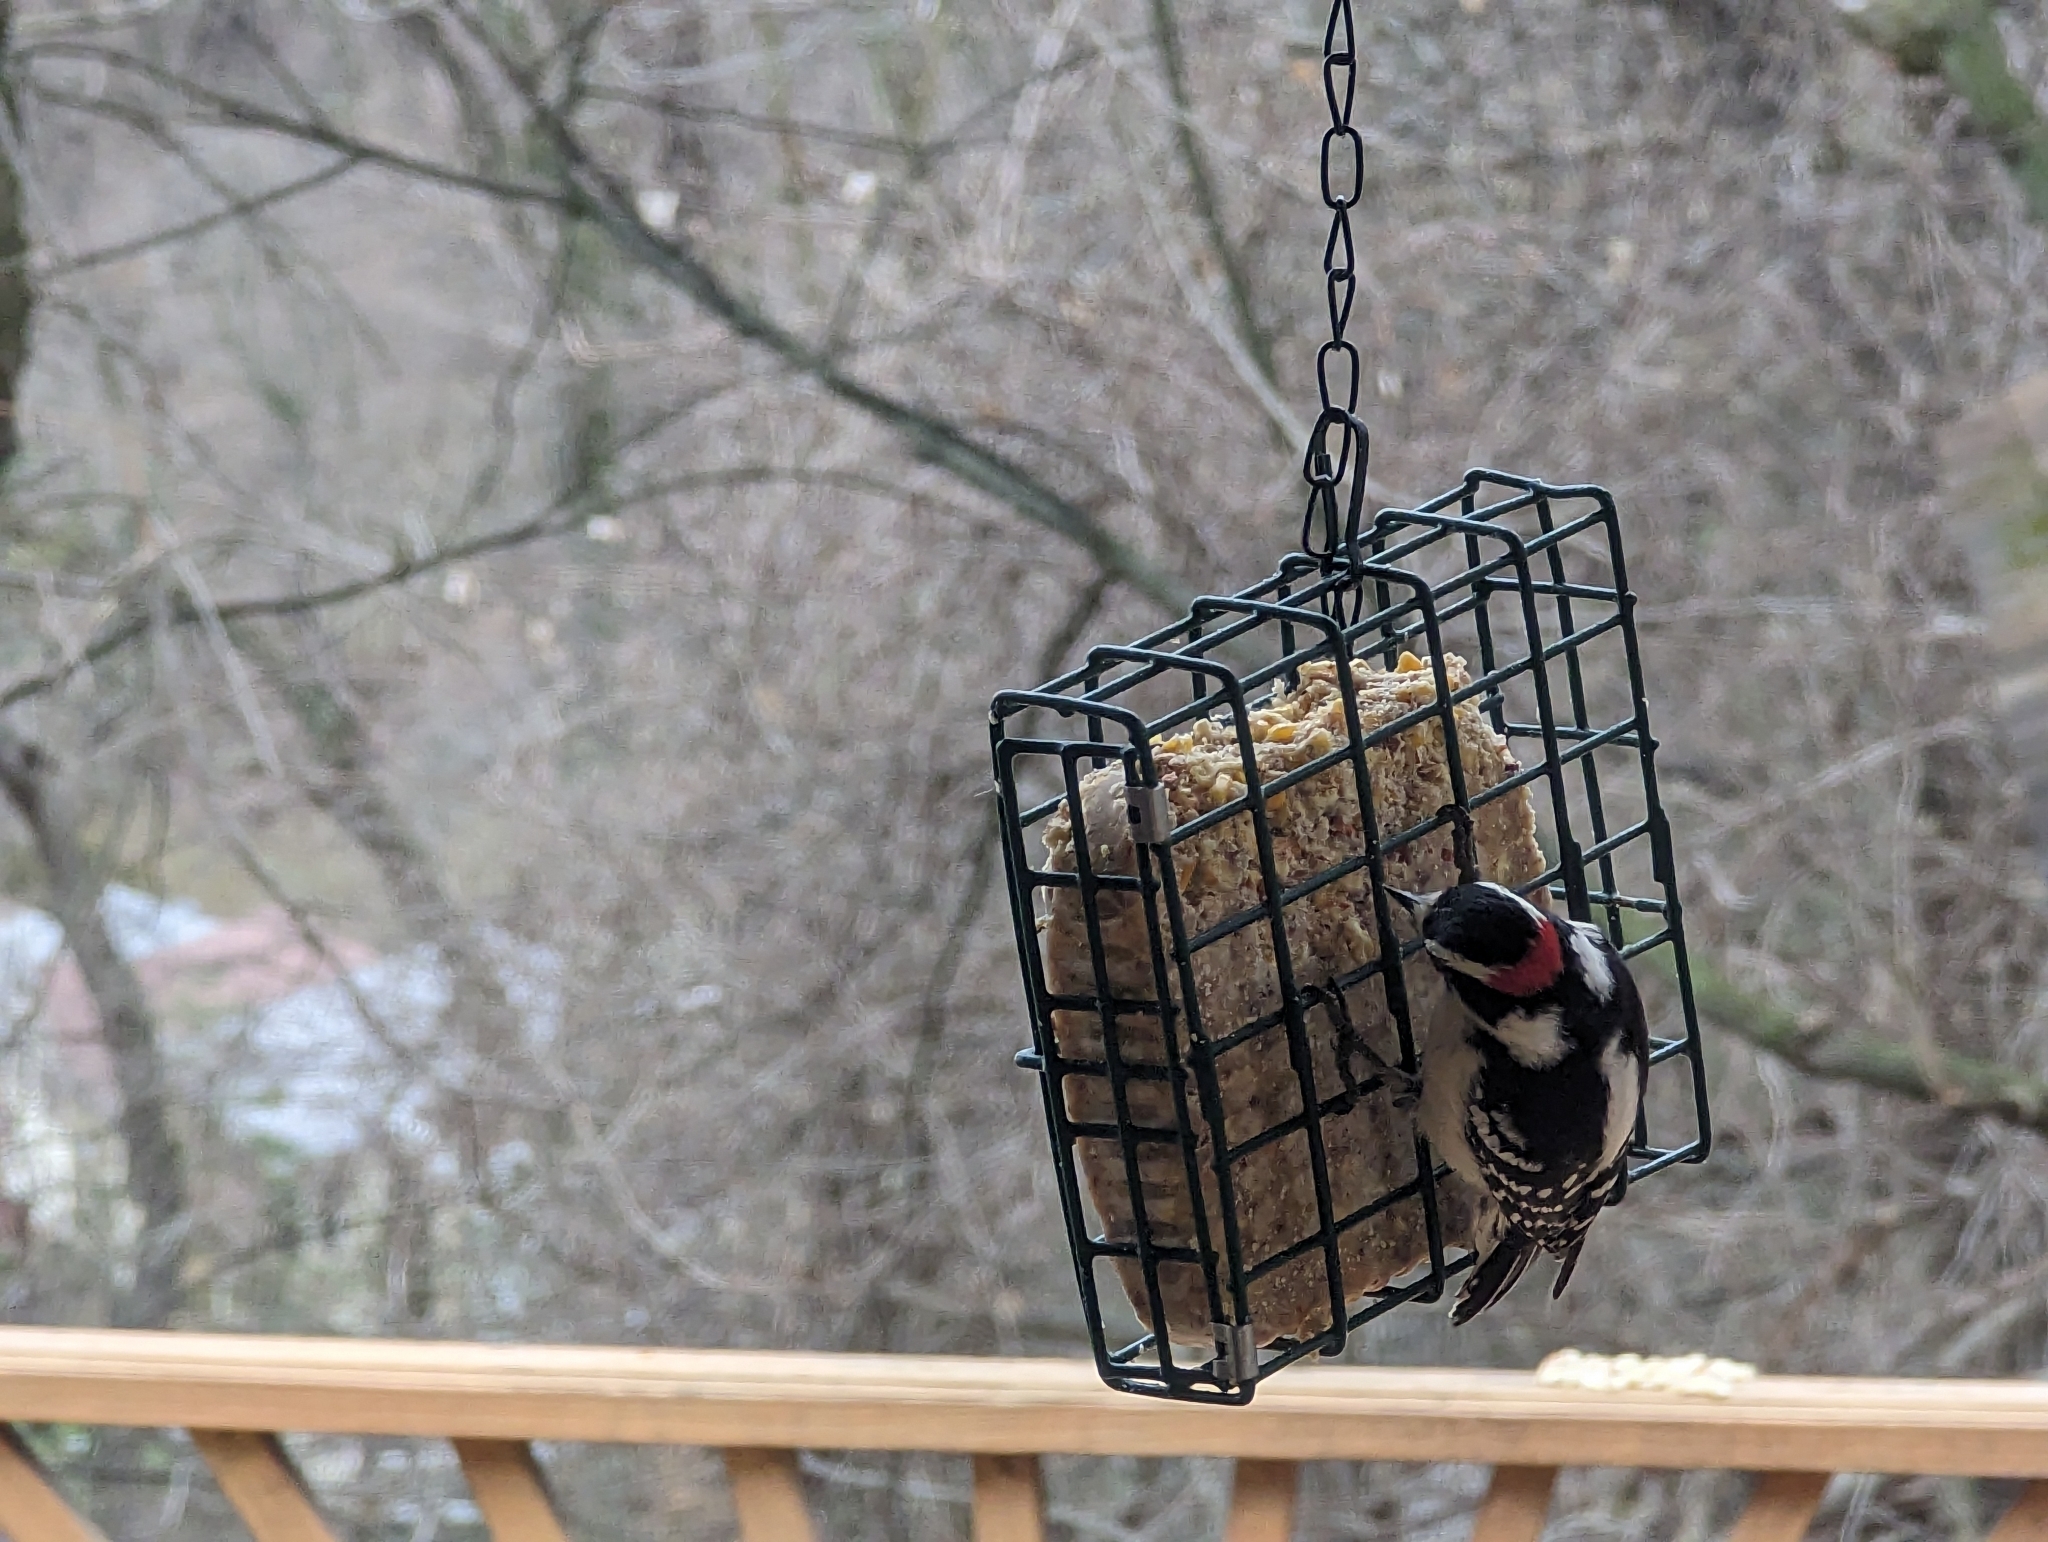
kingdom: Animalia
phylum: Chordata
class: Aves
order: Piciformes
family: Picidae
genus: Dryobates
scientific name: Dryobates pubescens
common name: Downy woodpecker
